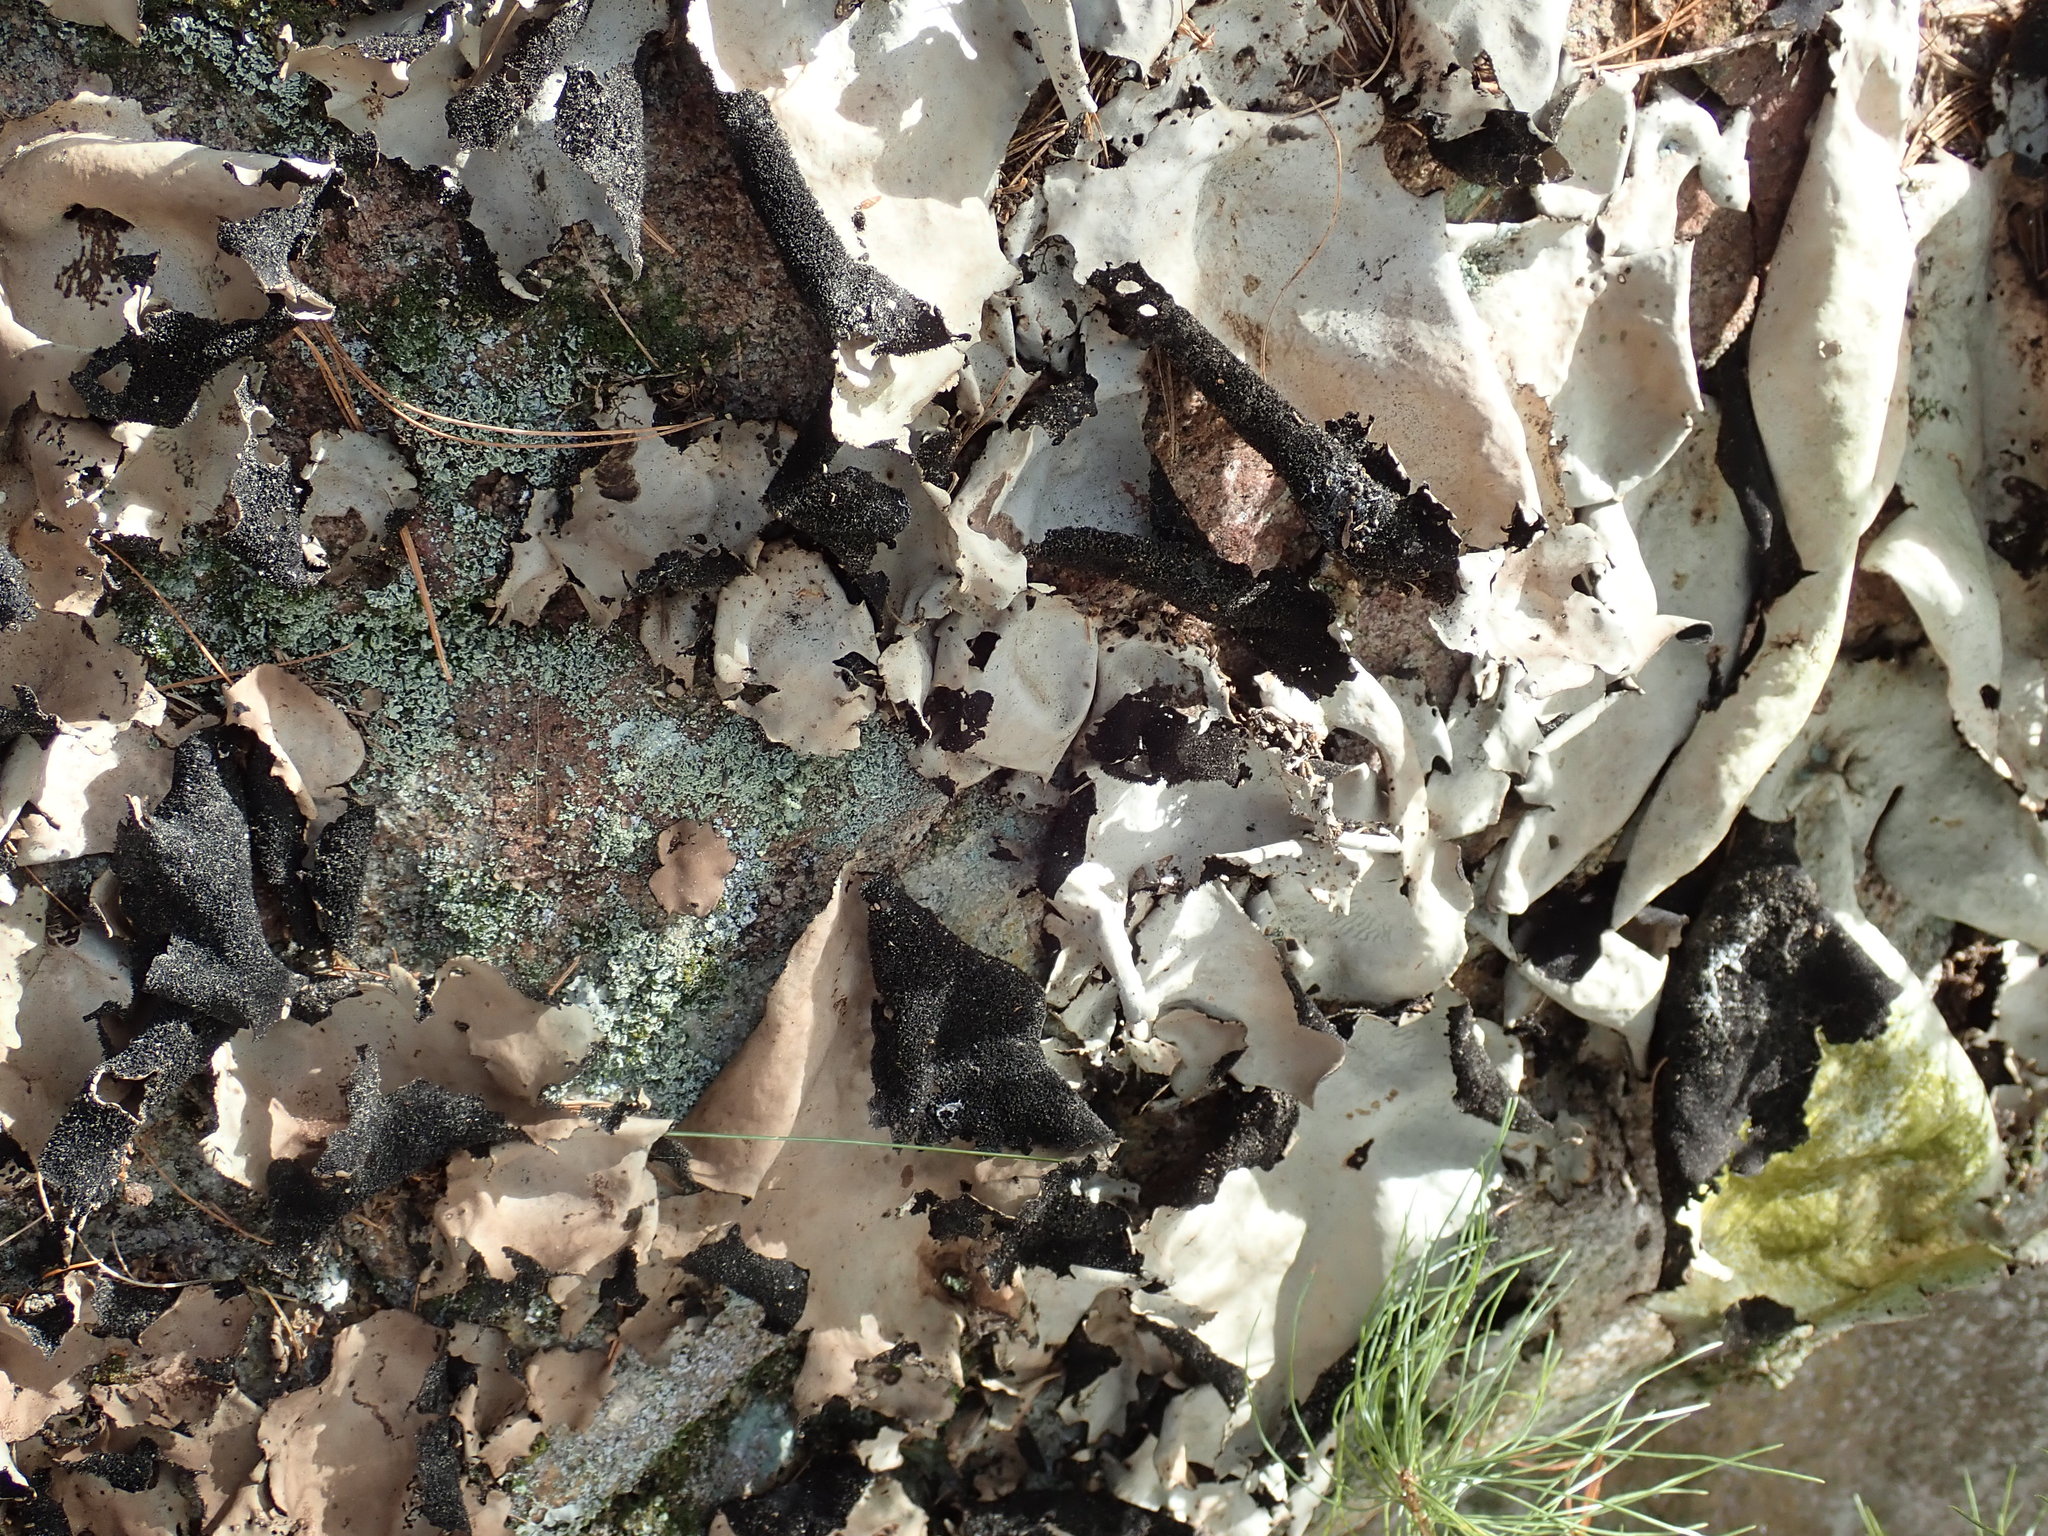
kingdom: Fungi
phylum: Ascomycota
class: Lecanoromycetes
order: Umbilicariales
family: Umbilicariaceae
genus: Umbilicaria
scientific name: Umbilicaria mammulata
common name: Smooth rock tripe
